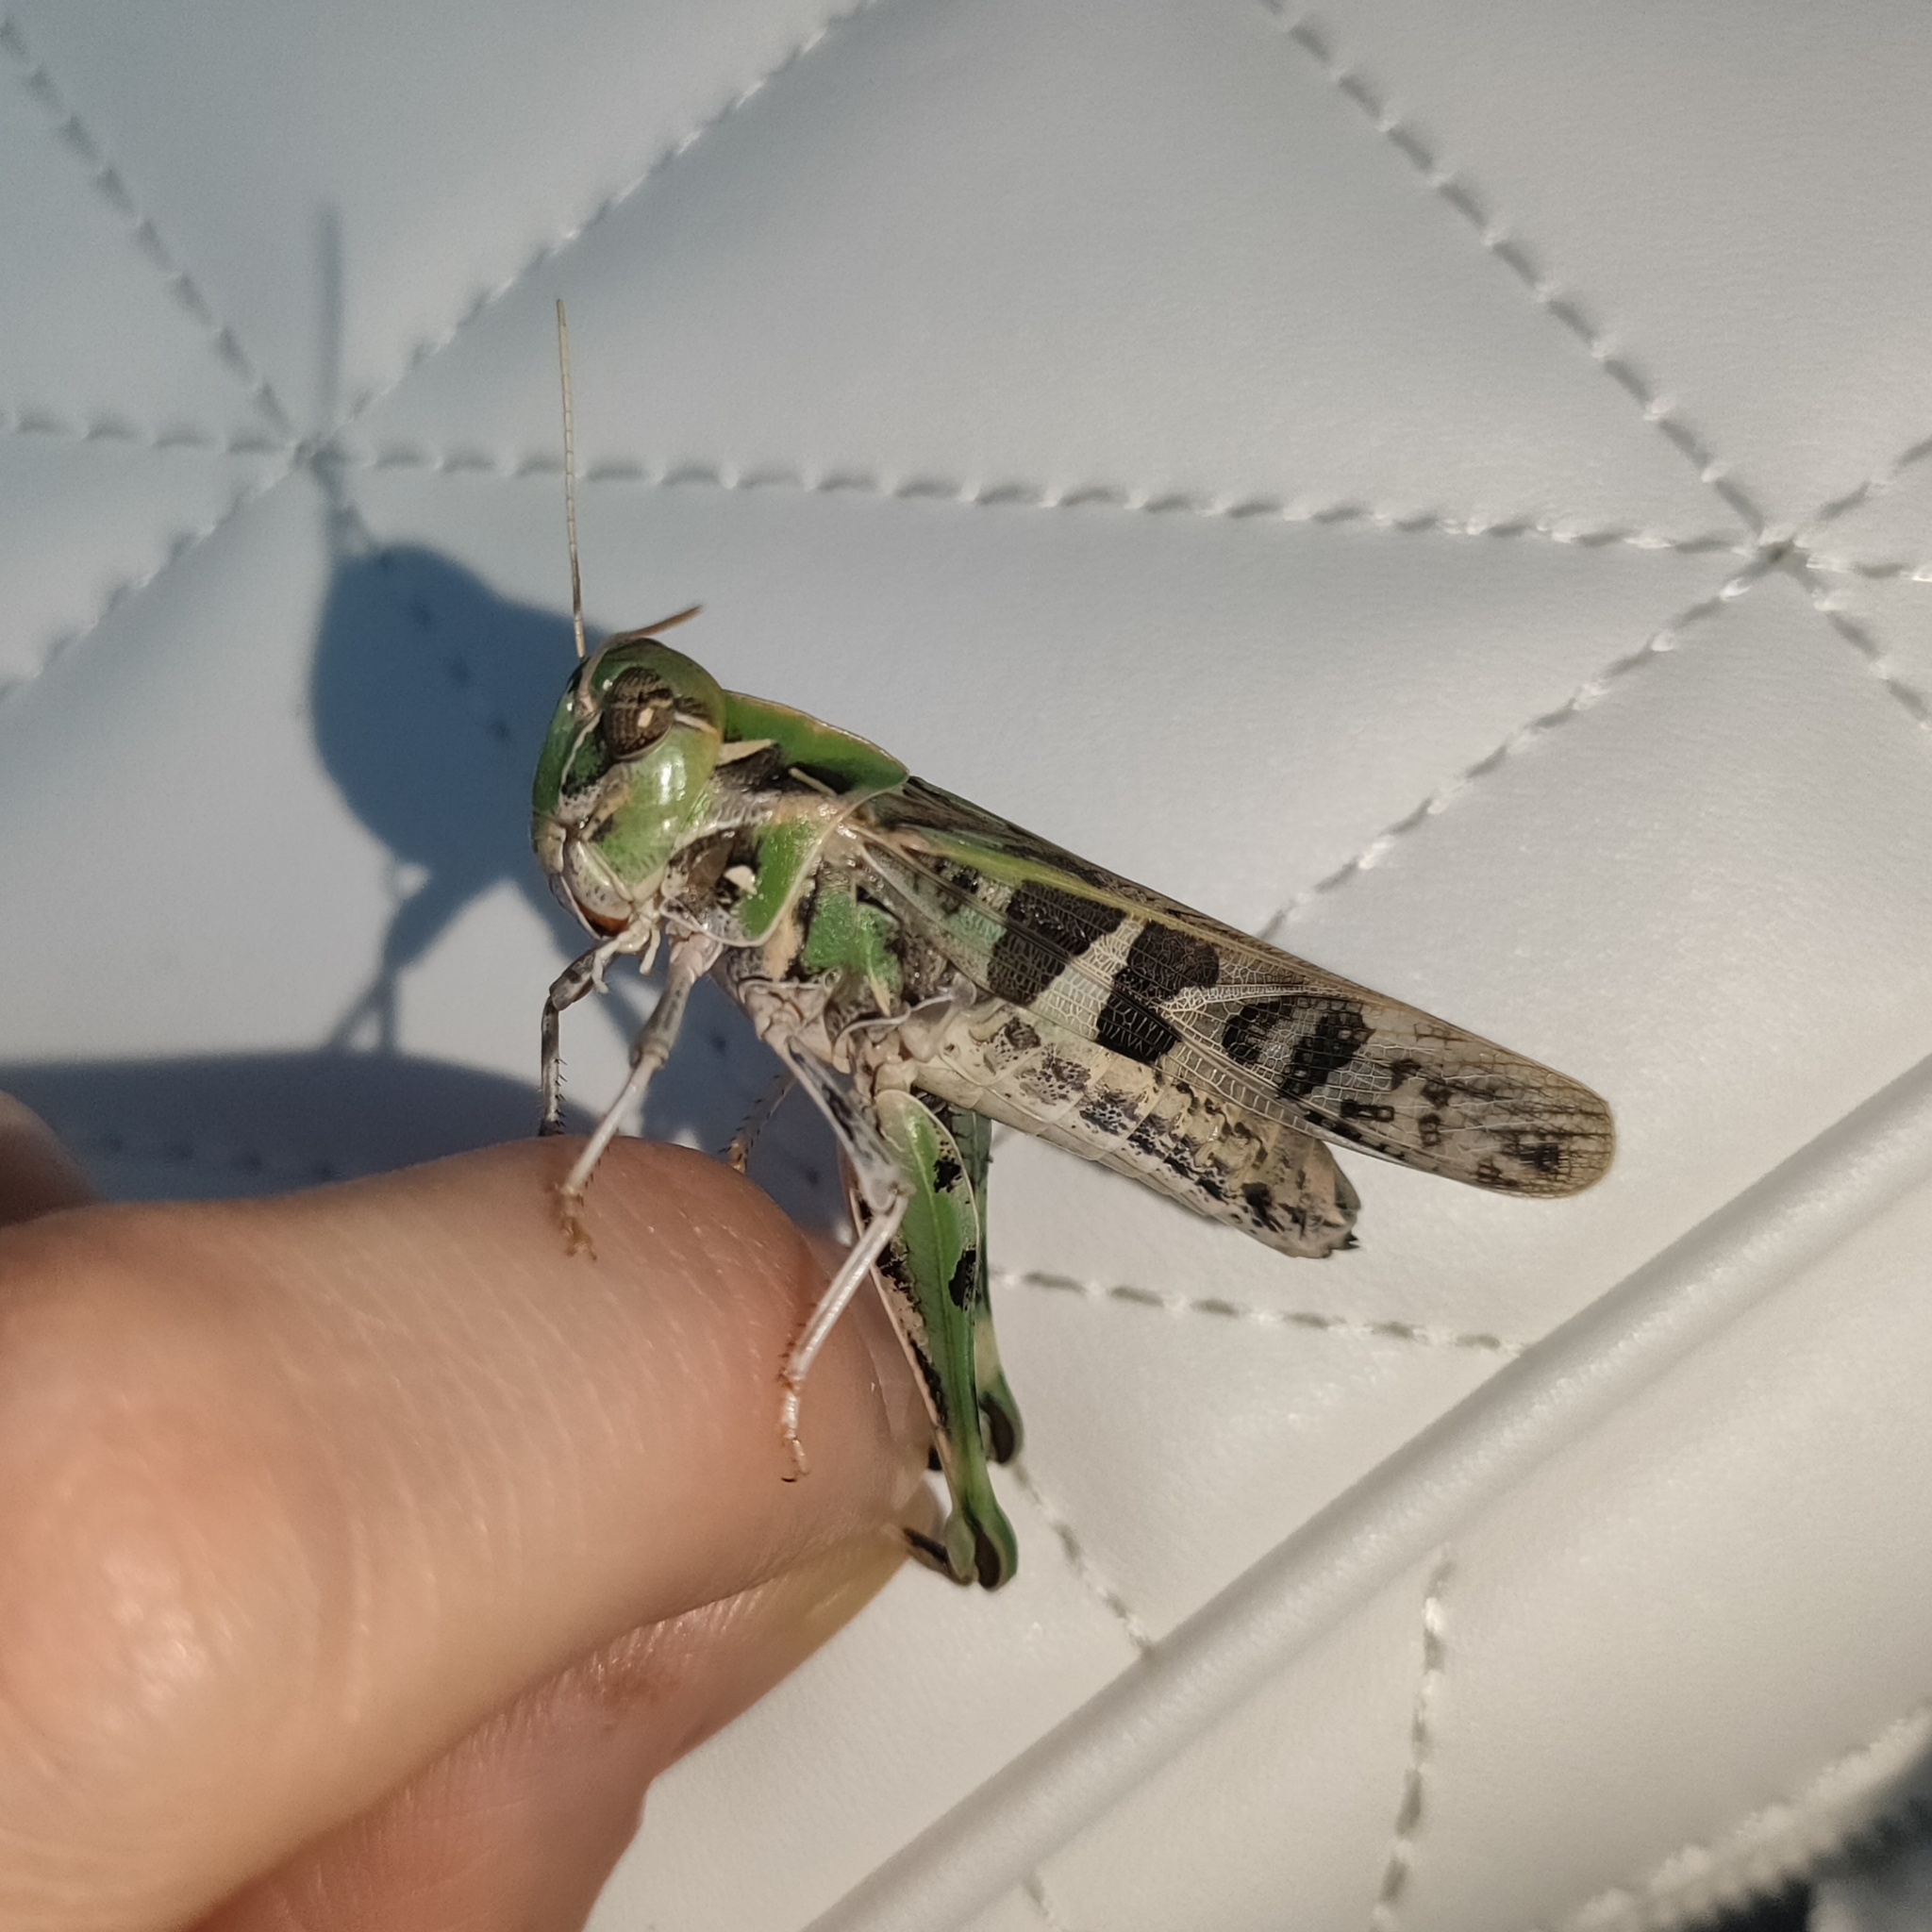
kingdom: Animalia
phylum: Arthropoda
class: Insecta
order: Orthoptera
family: Acrididae
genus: Oedaleus
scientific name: Oedaleus decorus
